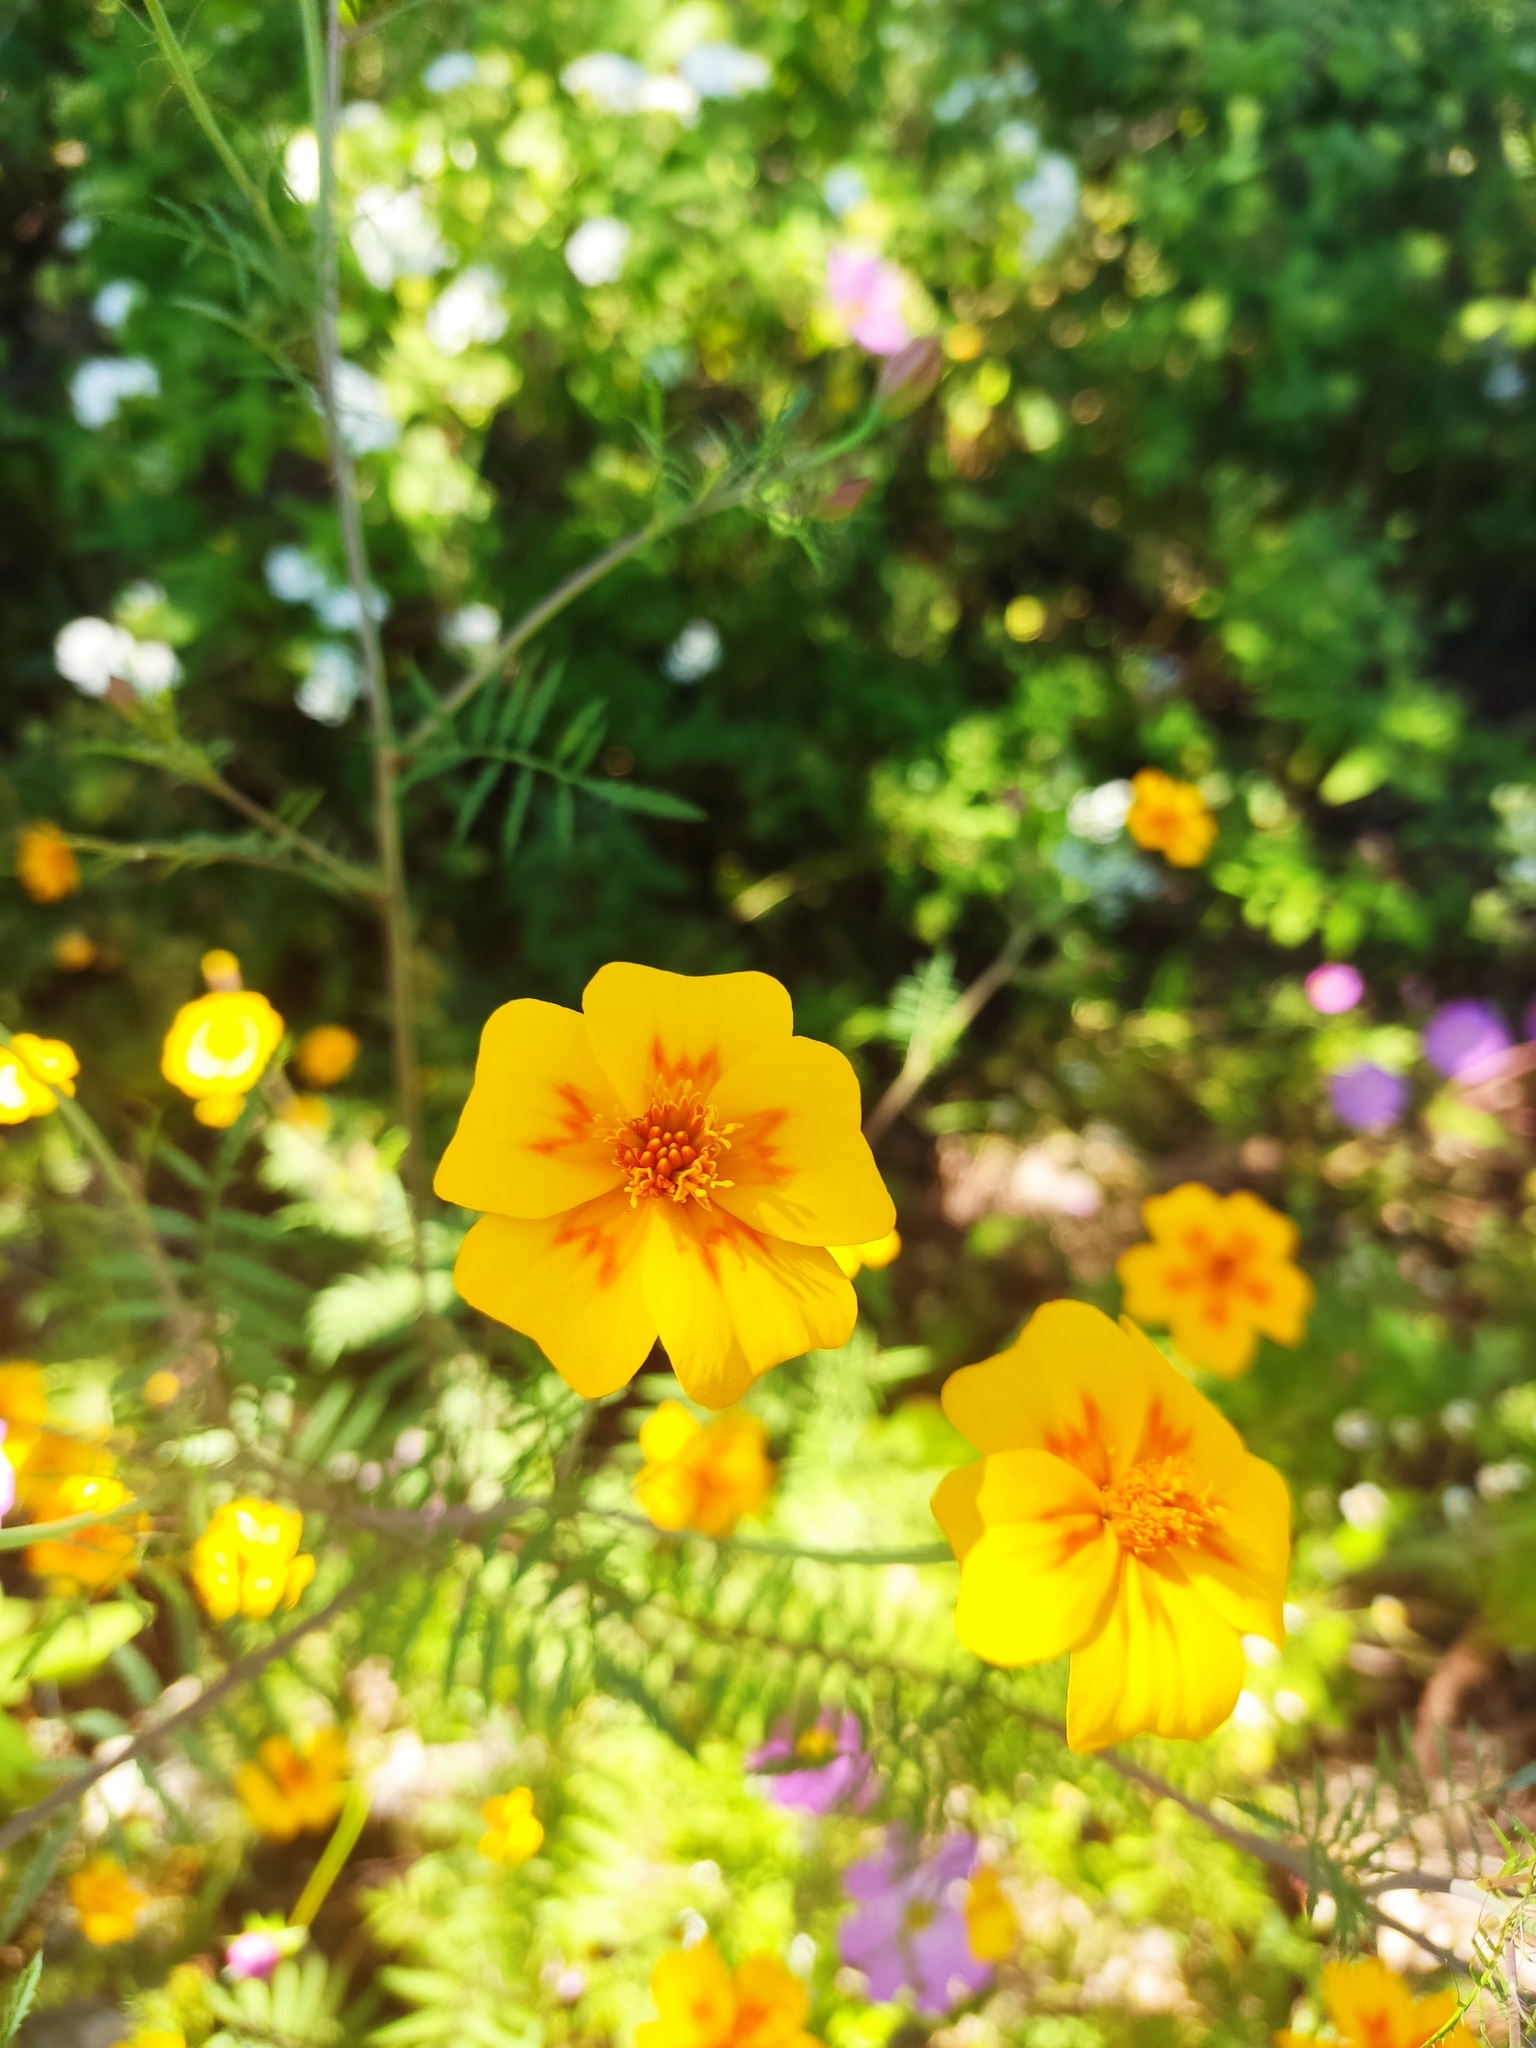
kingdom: Plantae
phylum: Tracheophyta
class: Magnoliopsida
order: Asterales
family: Asteraceae
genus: Tagetes
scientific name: Tagetes lunulata
